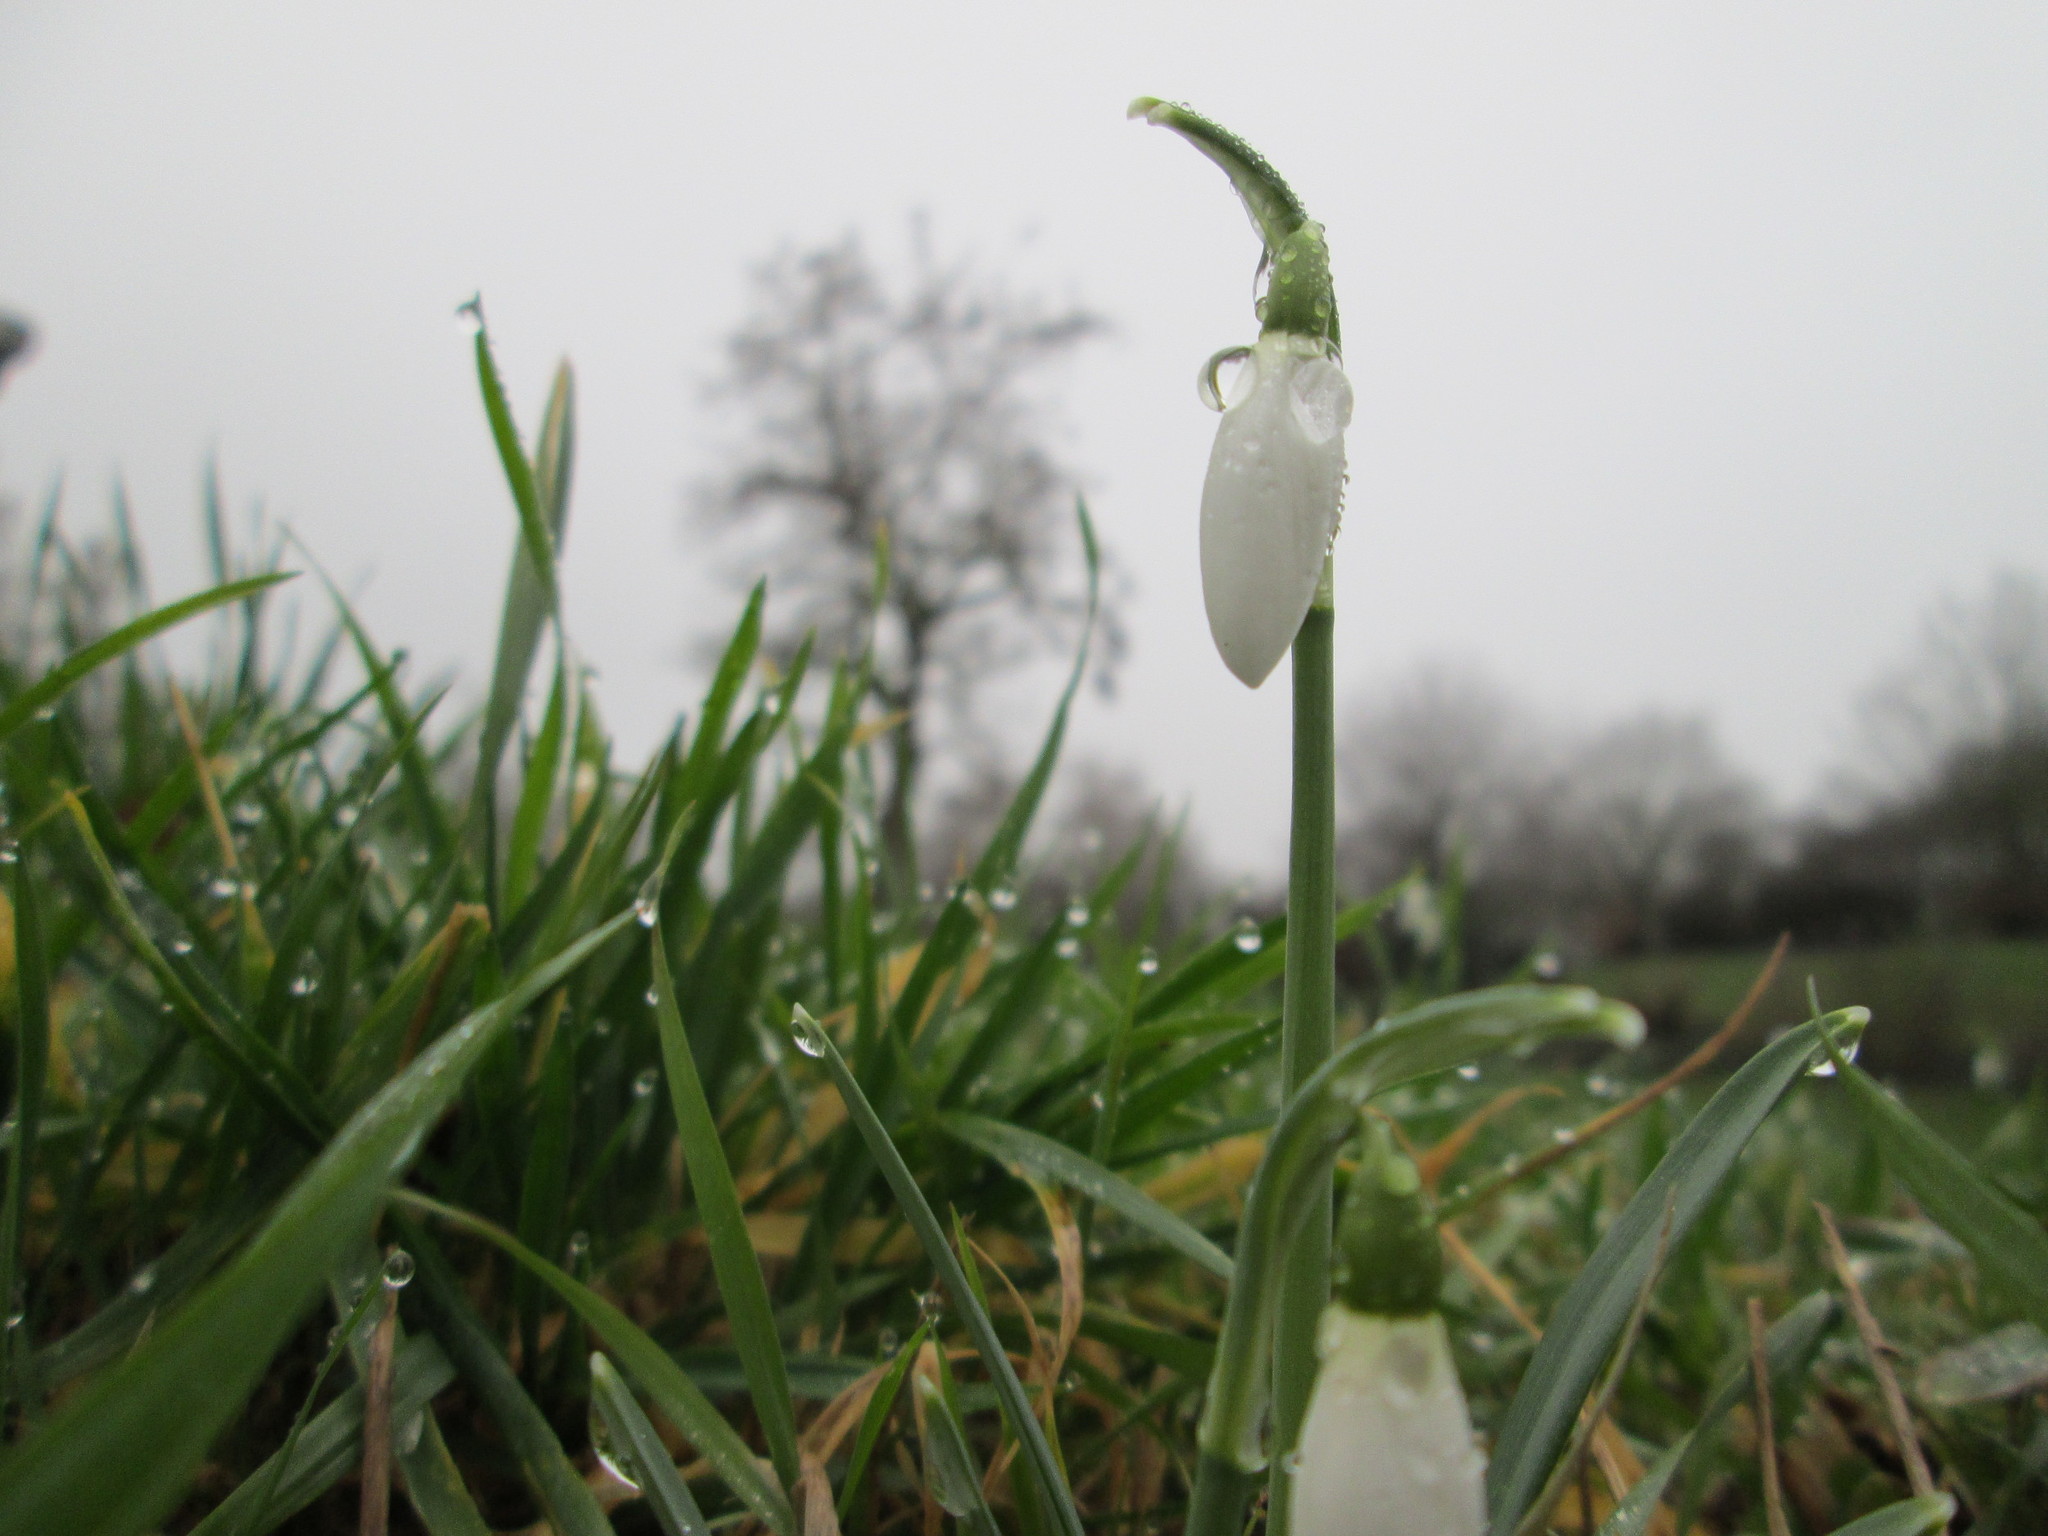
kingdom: Plantae
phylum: Tracheophyta
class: Liliopsida
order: Asparagales
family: Amaryllidaceae
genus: Galanthus
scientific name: Galanthus nivalis
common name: Snowdrop
